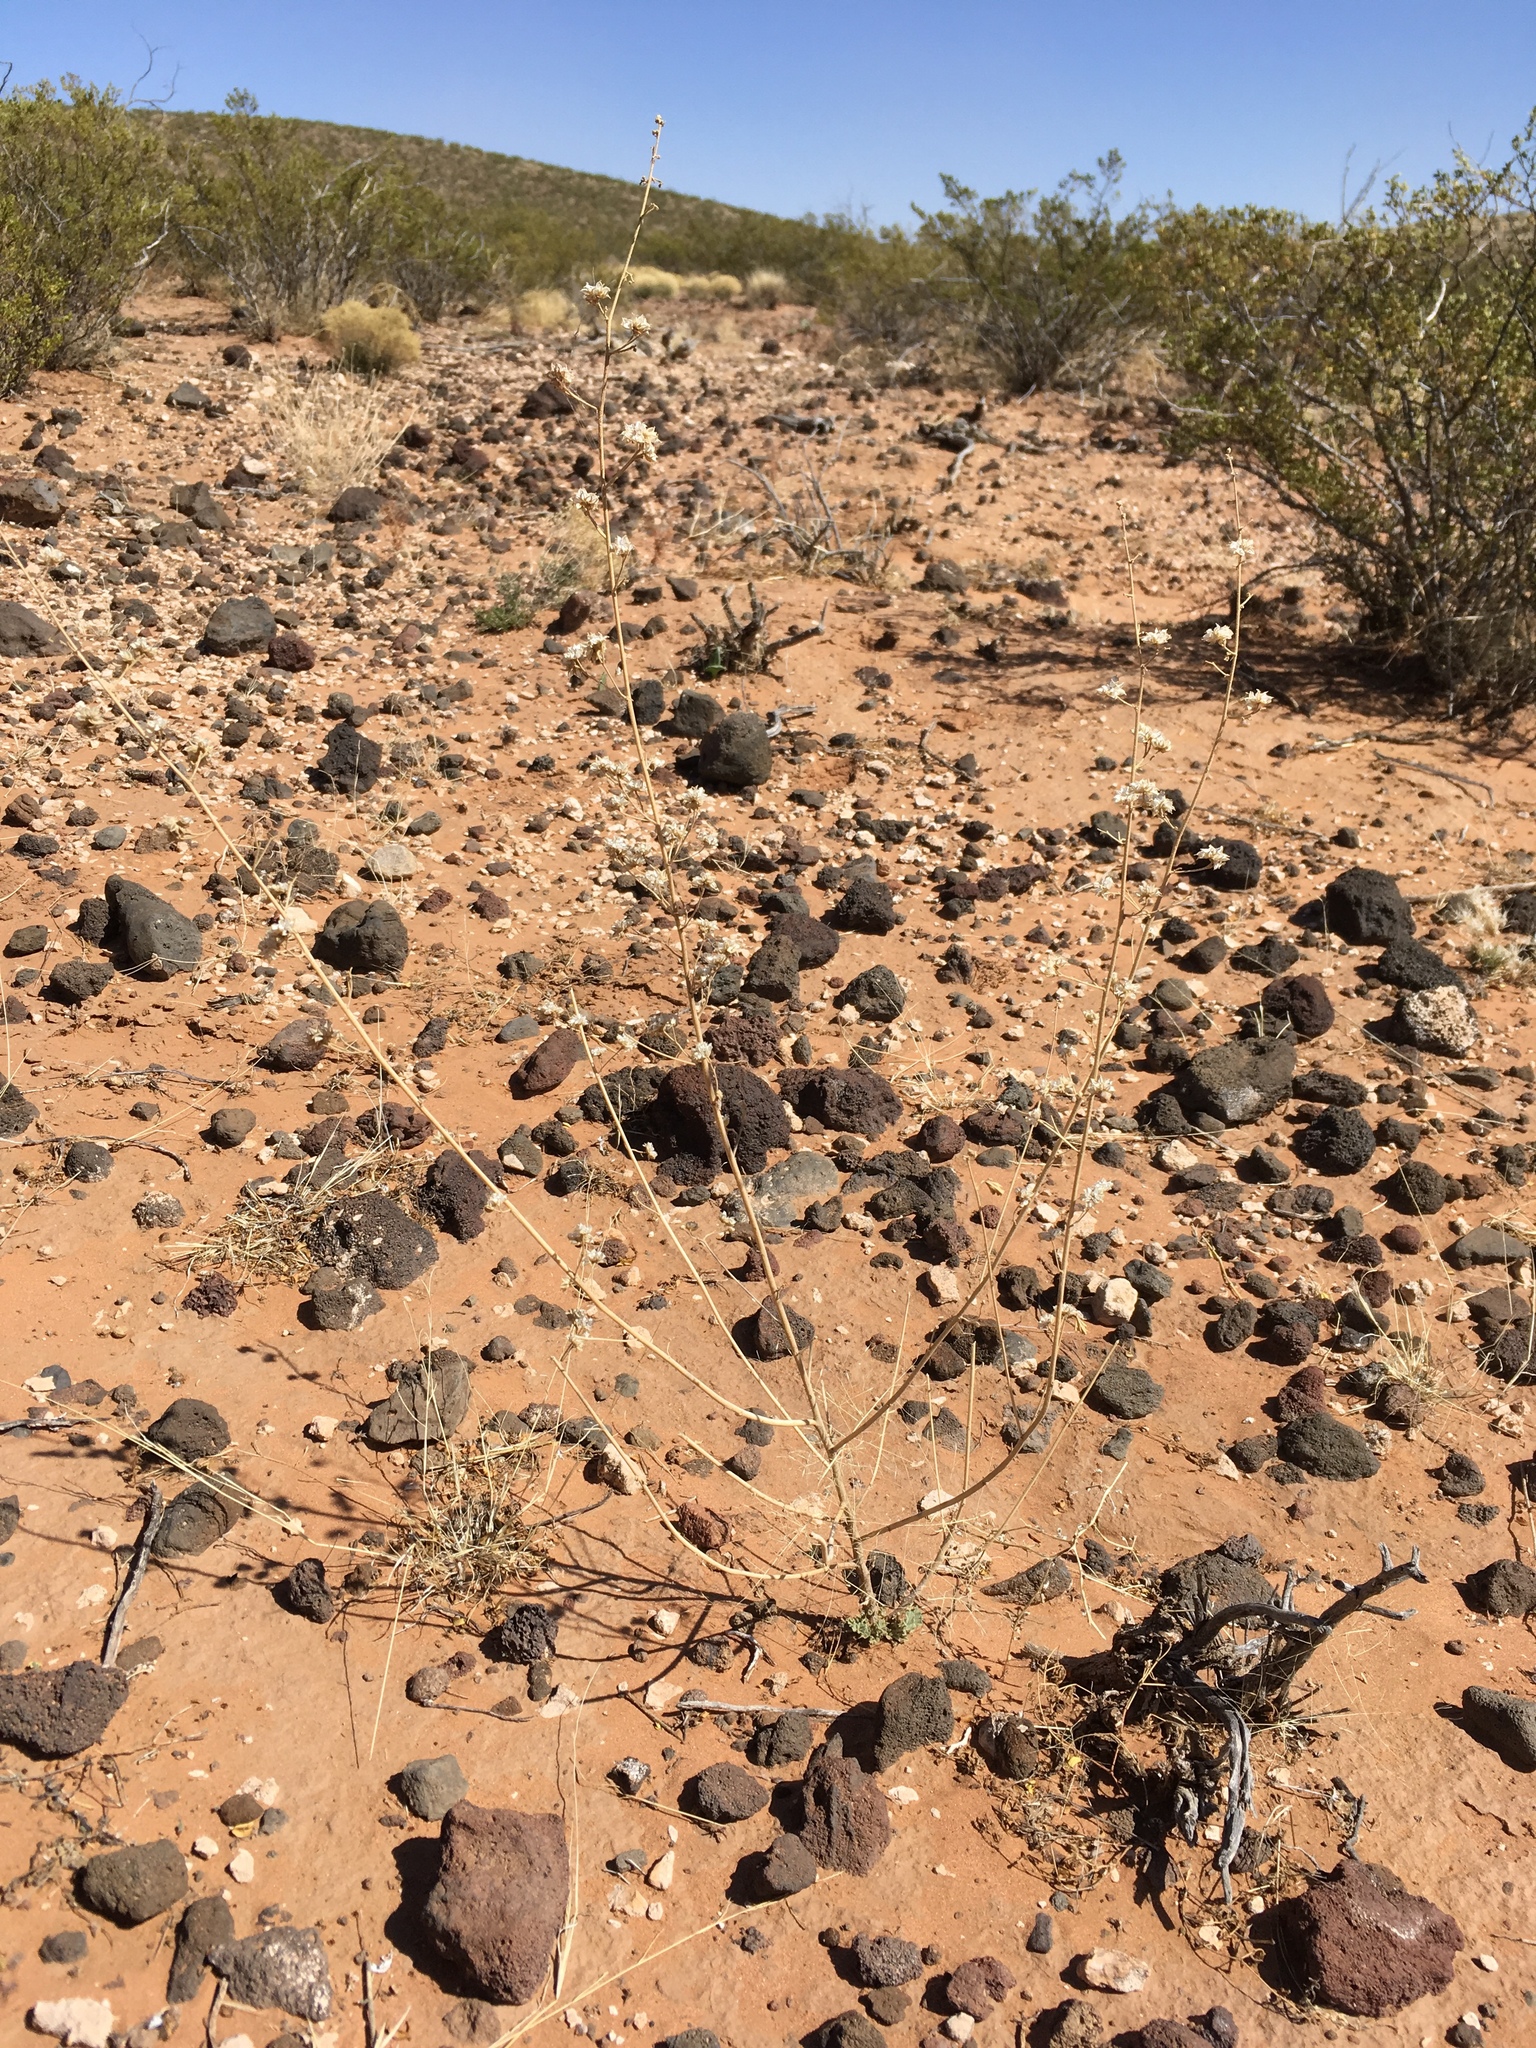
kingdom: Plantae
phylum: Tracheophyta
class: Magnoliopsida
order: Malvales
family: Malvaceae
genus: Sphaeralcea
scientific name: Sphaeralcea incana
